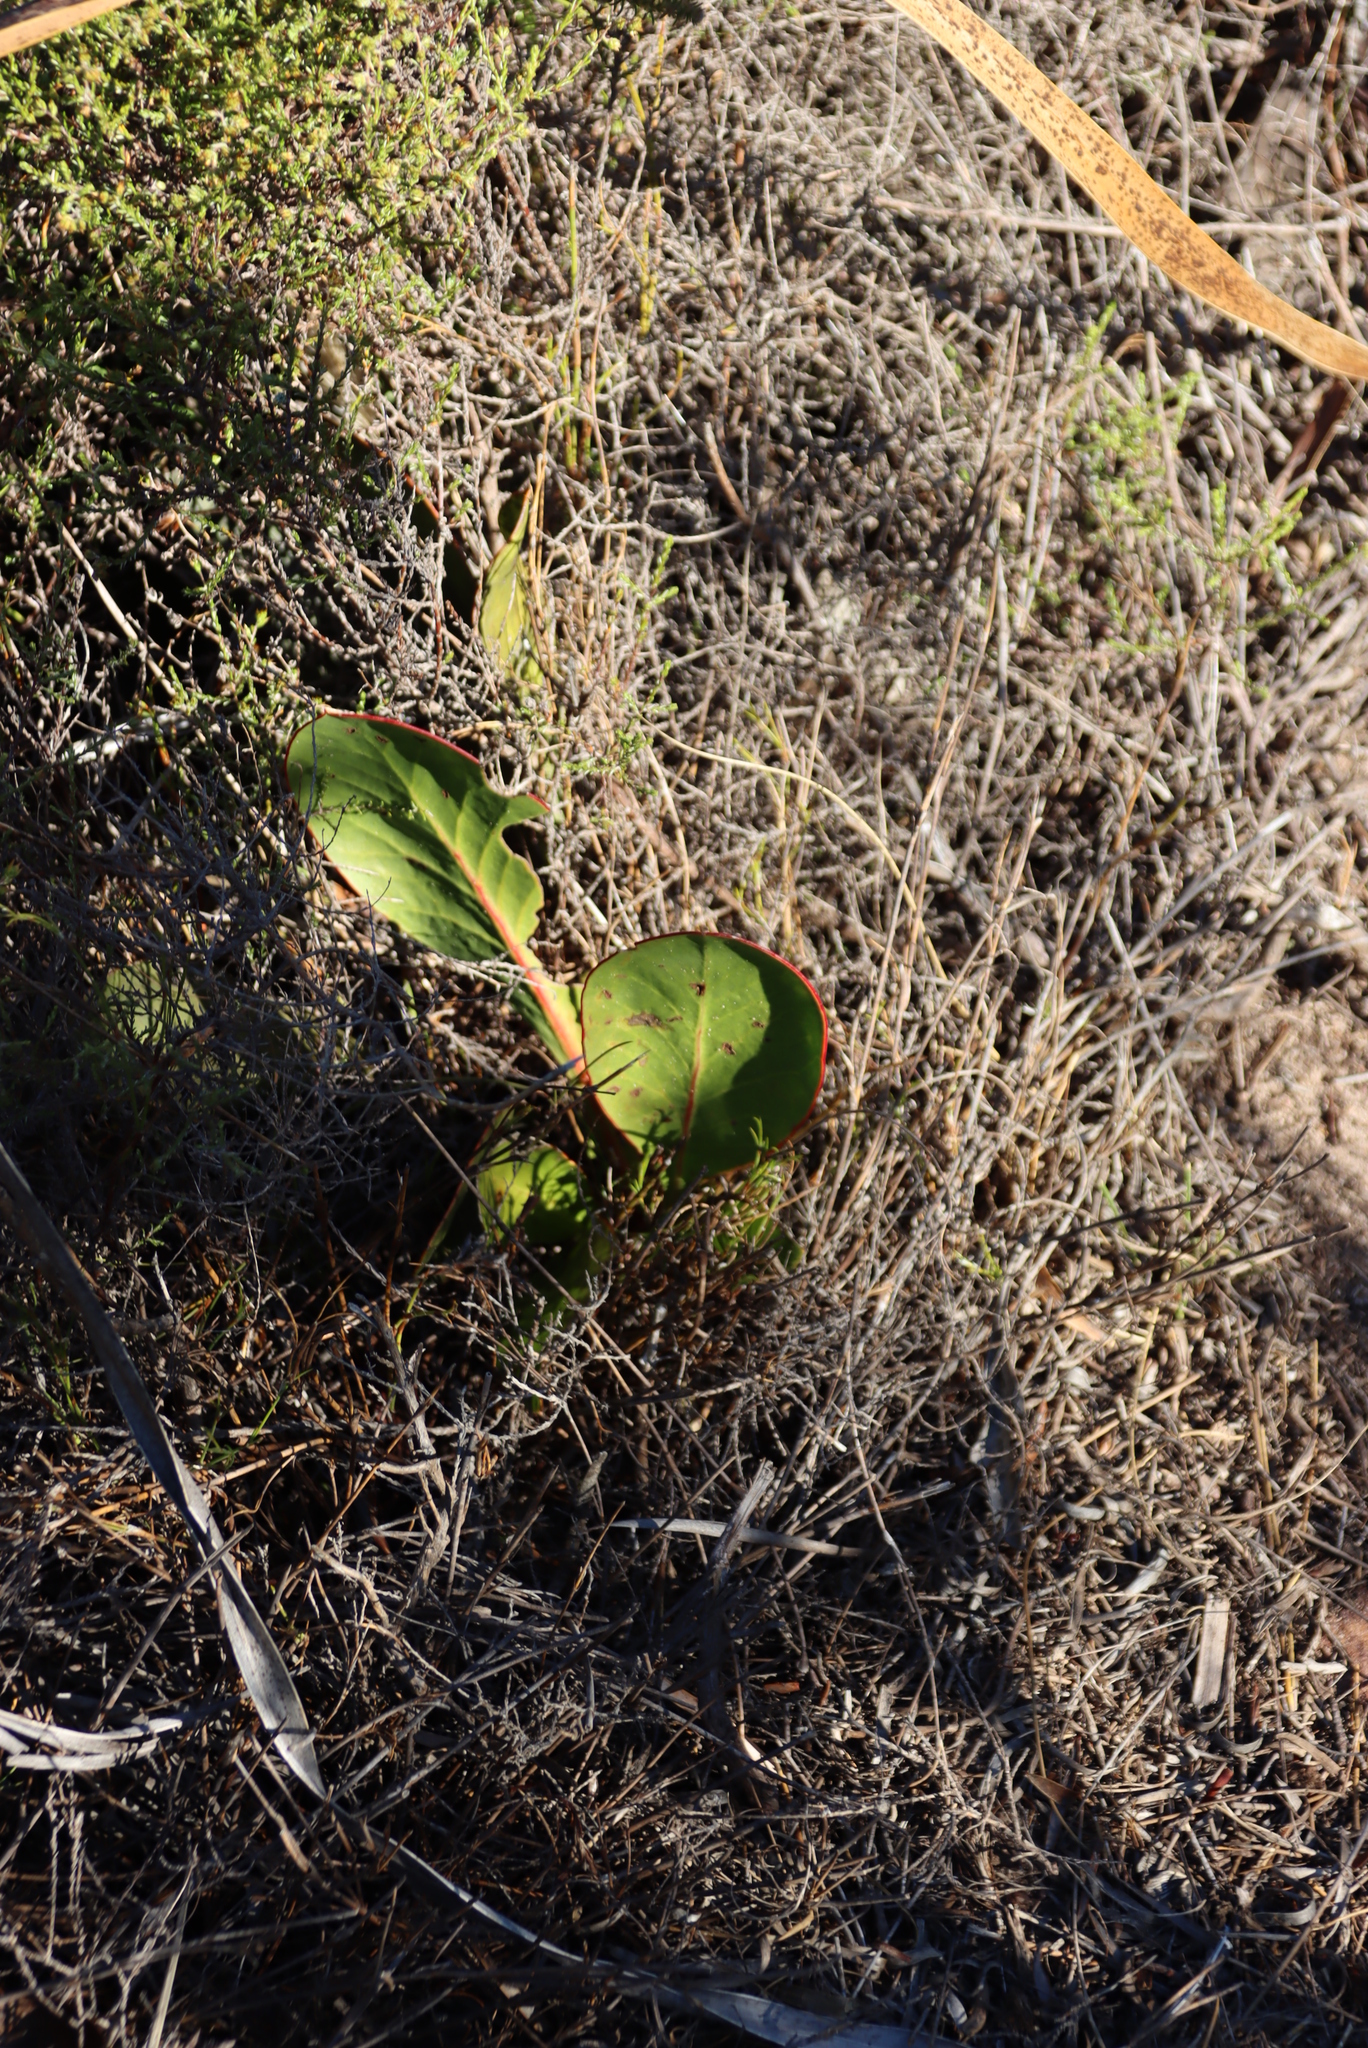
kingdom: Plantae
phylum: Tracheophyta
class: Magnoliopsida
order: Proteales
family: Proteaceae
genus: Protea
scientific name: Protea acaulos
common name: Common ground sugarbush
